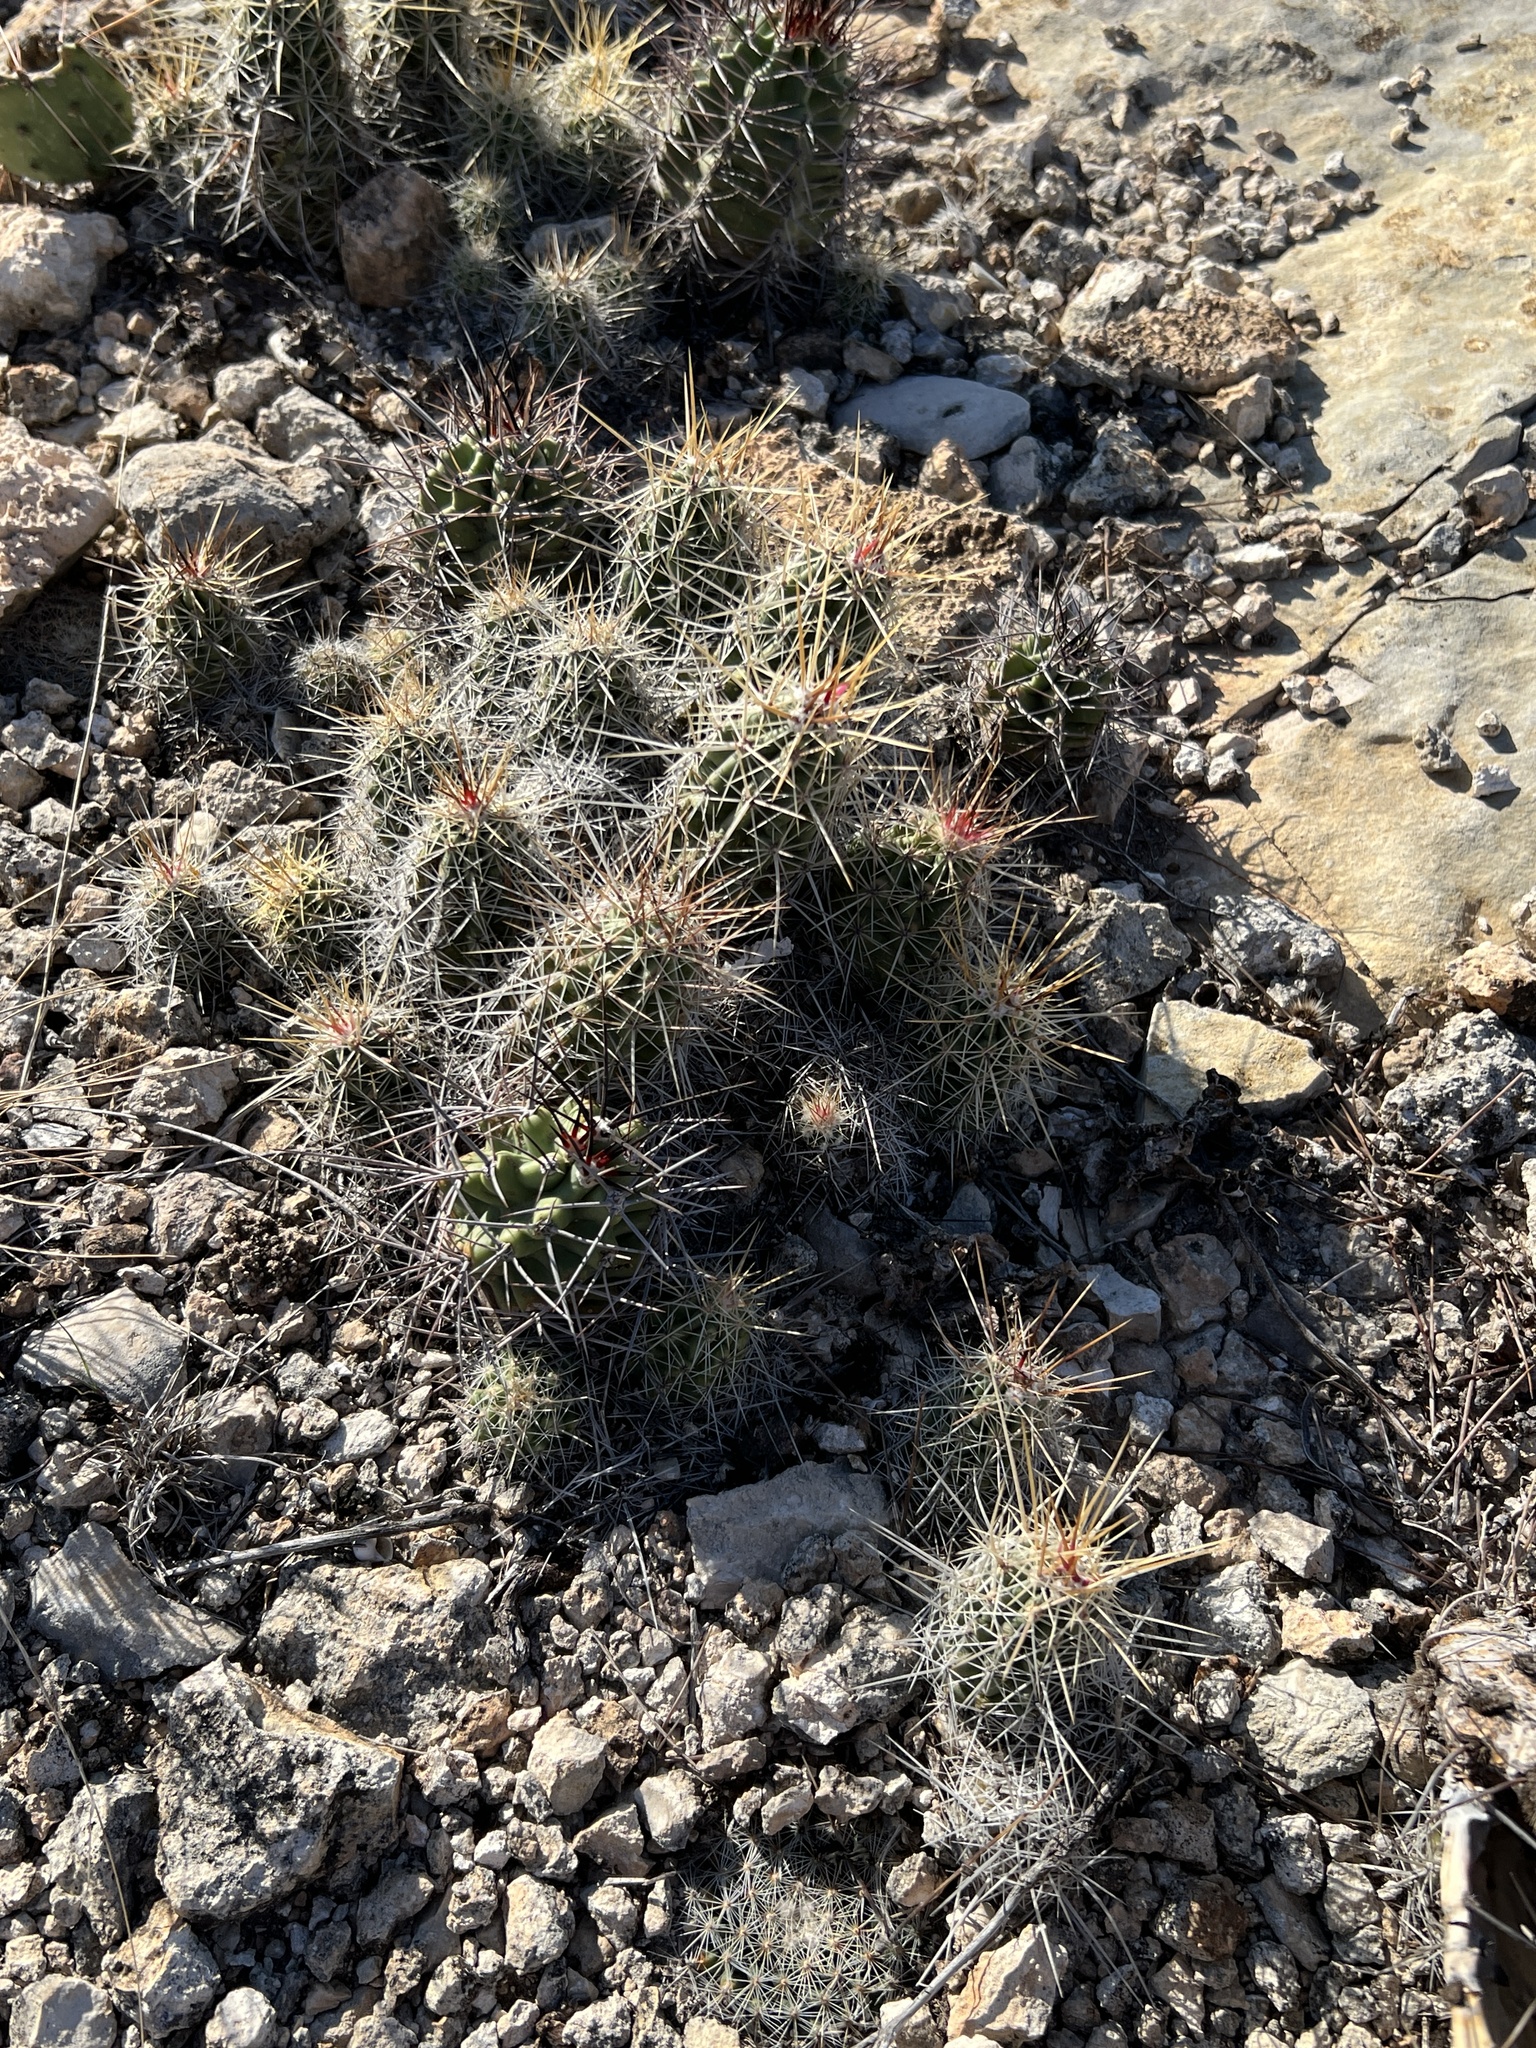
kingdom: Plantae
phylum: Tracheophyta
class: Magnoliopsida
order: Caryophyllales
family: Cactaceae
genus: Echinocereus
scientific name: Echinocereus enneacanthus
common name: Pitaya
